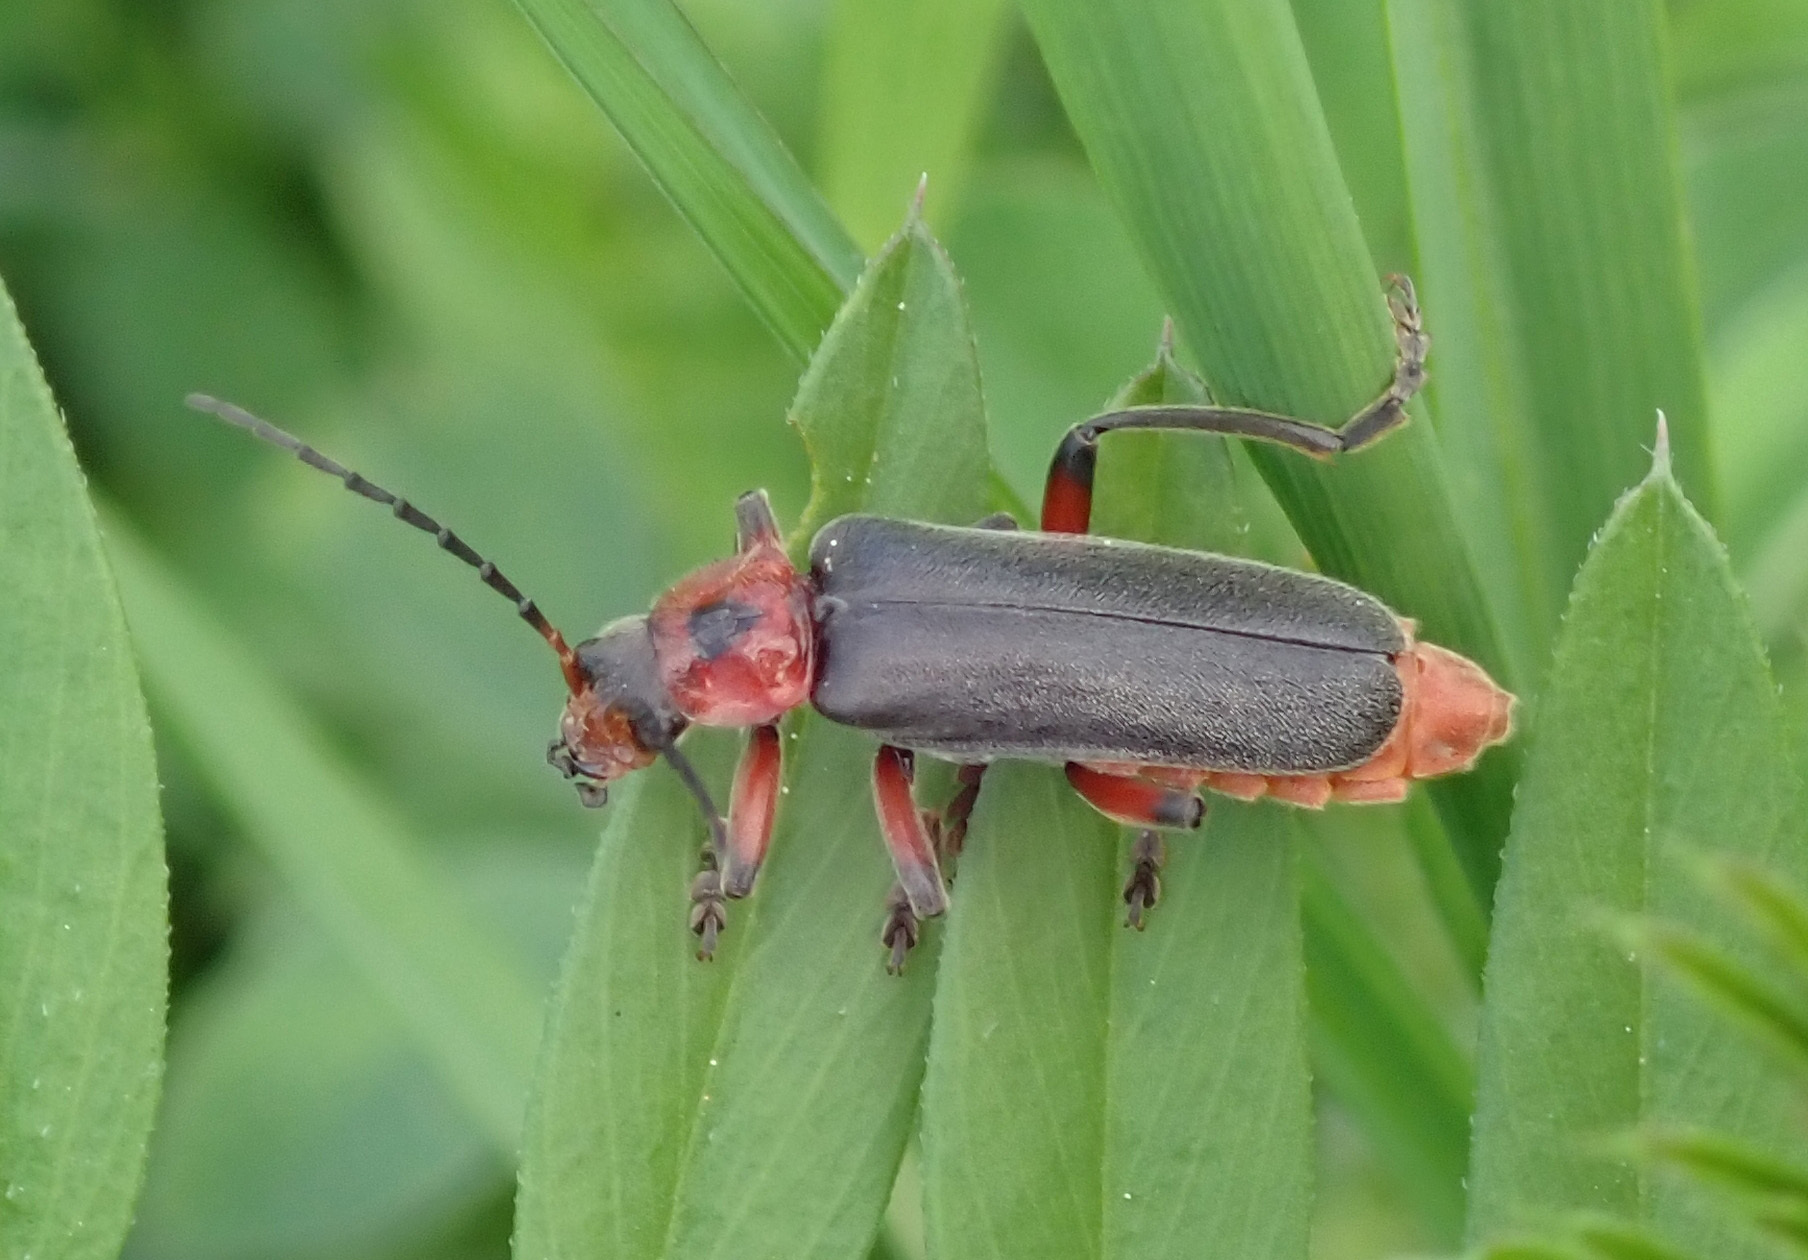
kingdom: Animalia
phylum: Arthropoda
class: Insecta
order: Coleoptera
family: Cantharidae
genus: Cantharis
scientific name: Cantharis rustica
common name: Soldier beetle
